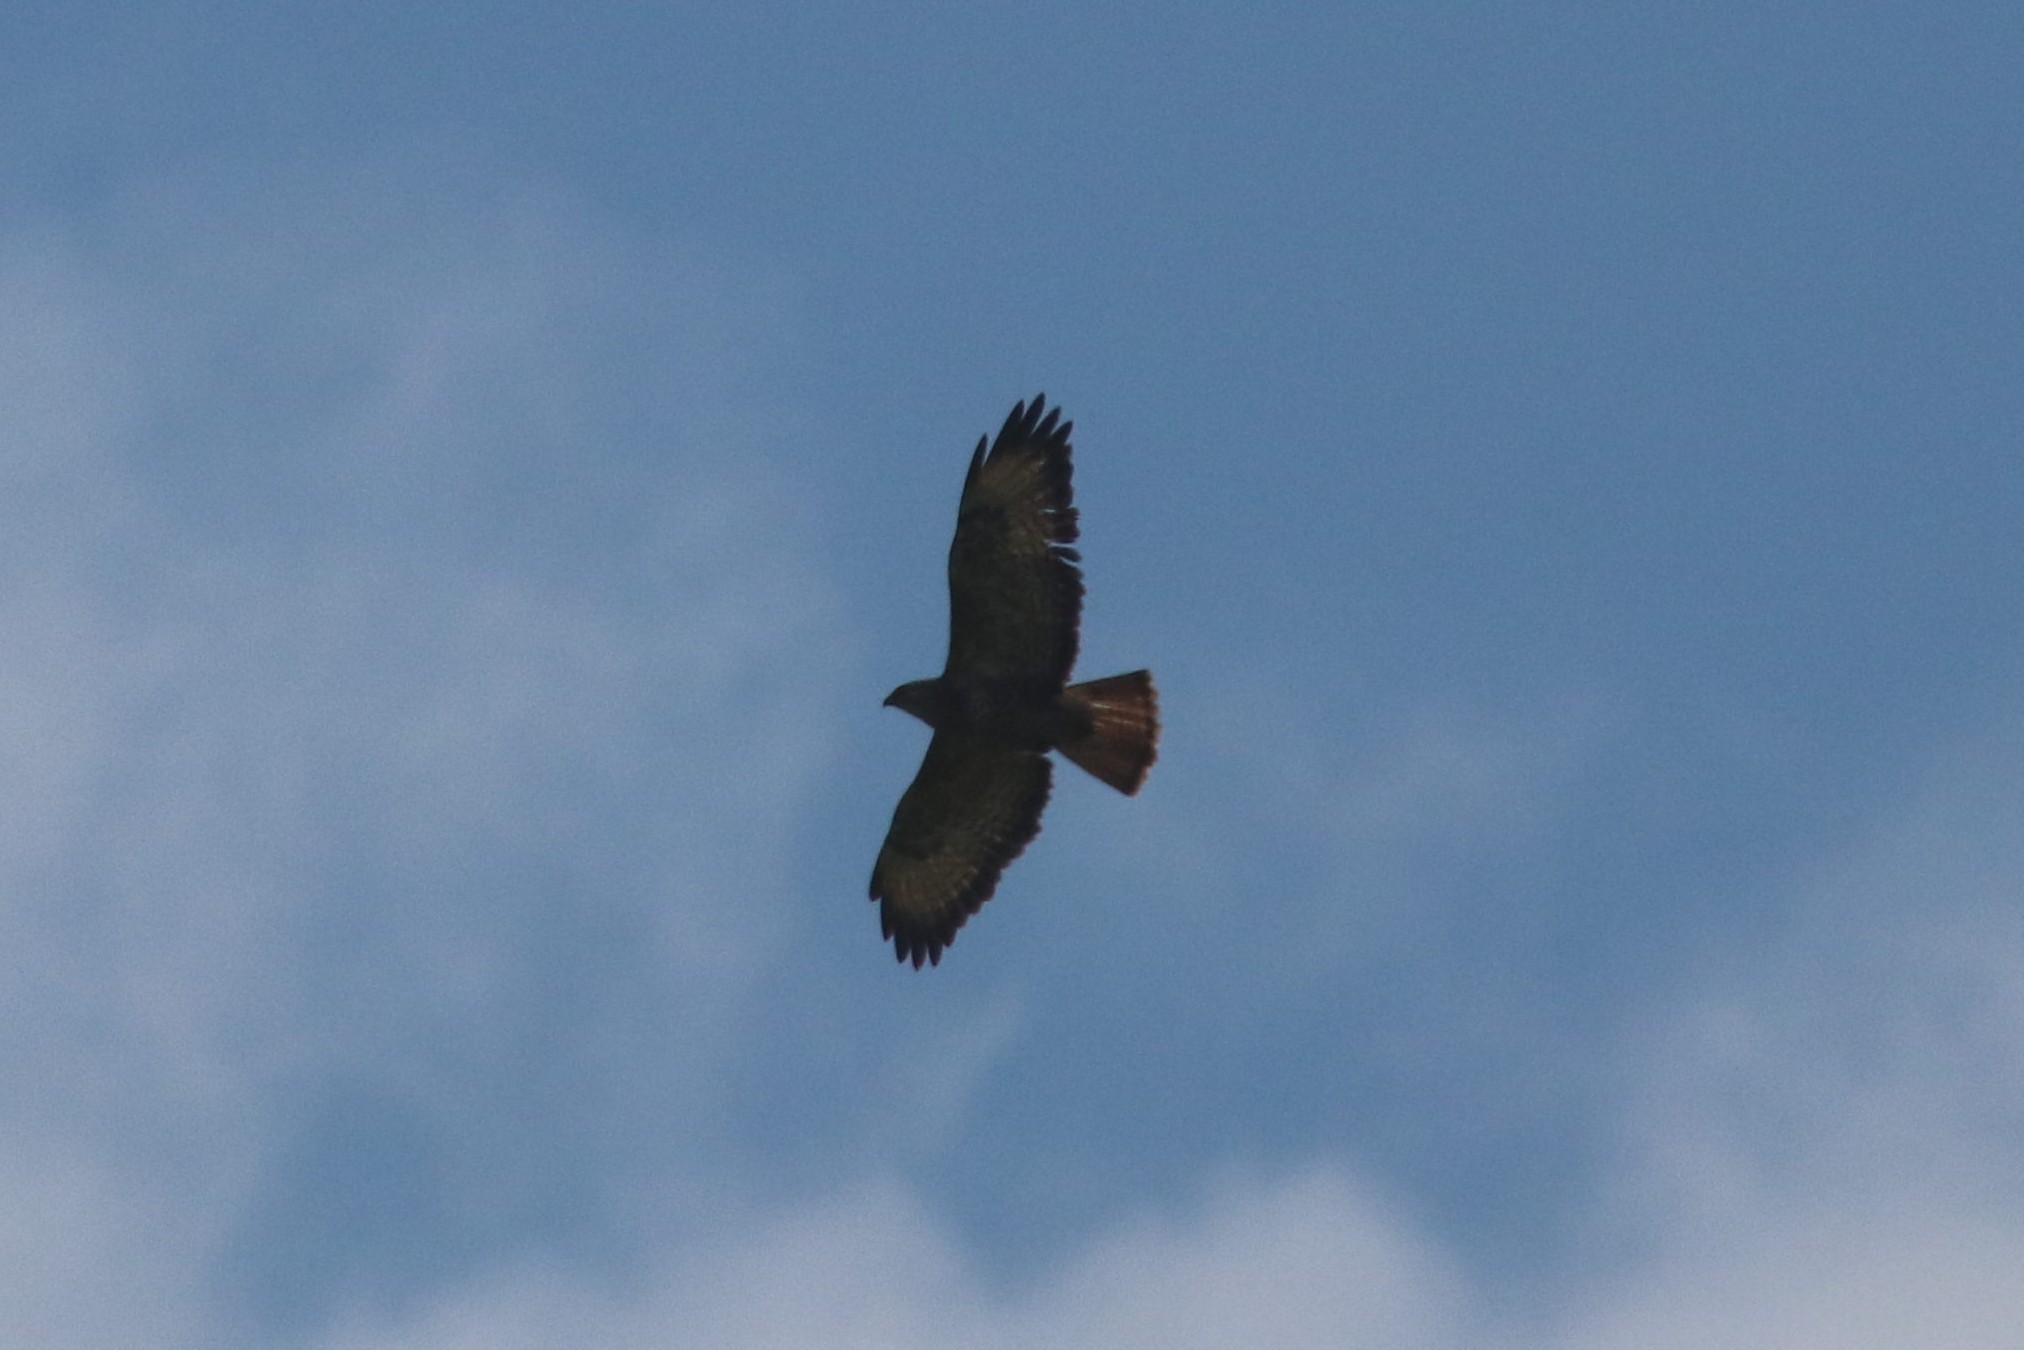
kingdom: Animalia
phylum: Chordata
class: Aves
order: Accipitriformes
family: Accipitridae
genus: Buteo
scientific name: Buteo buteo
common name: Common buzzard
